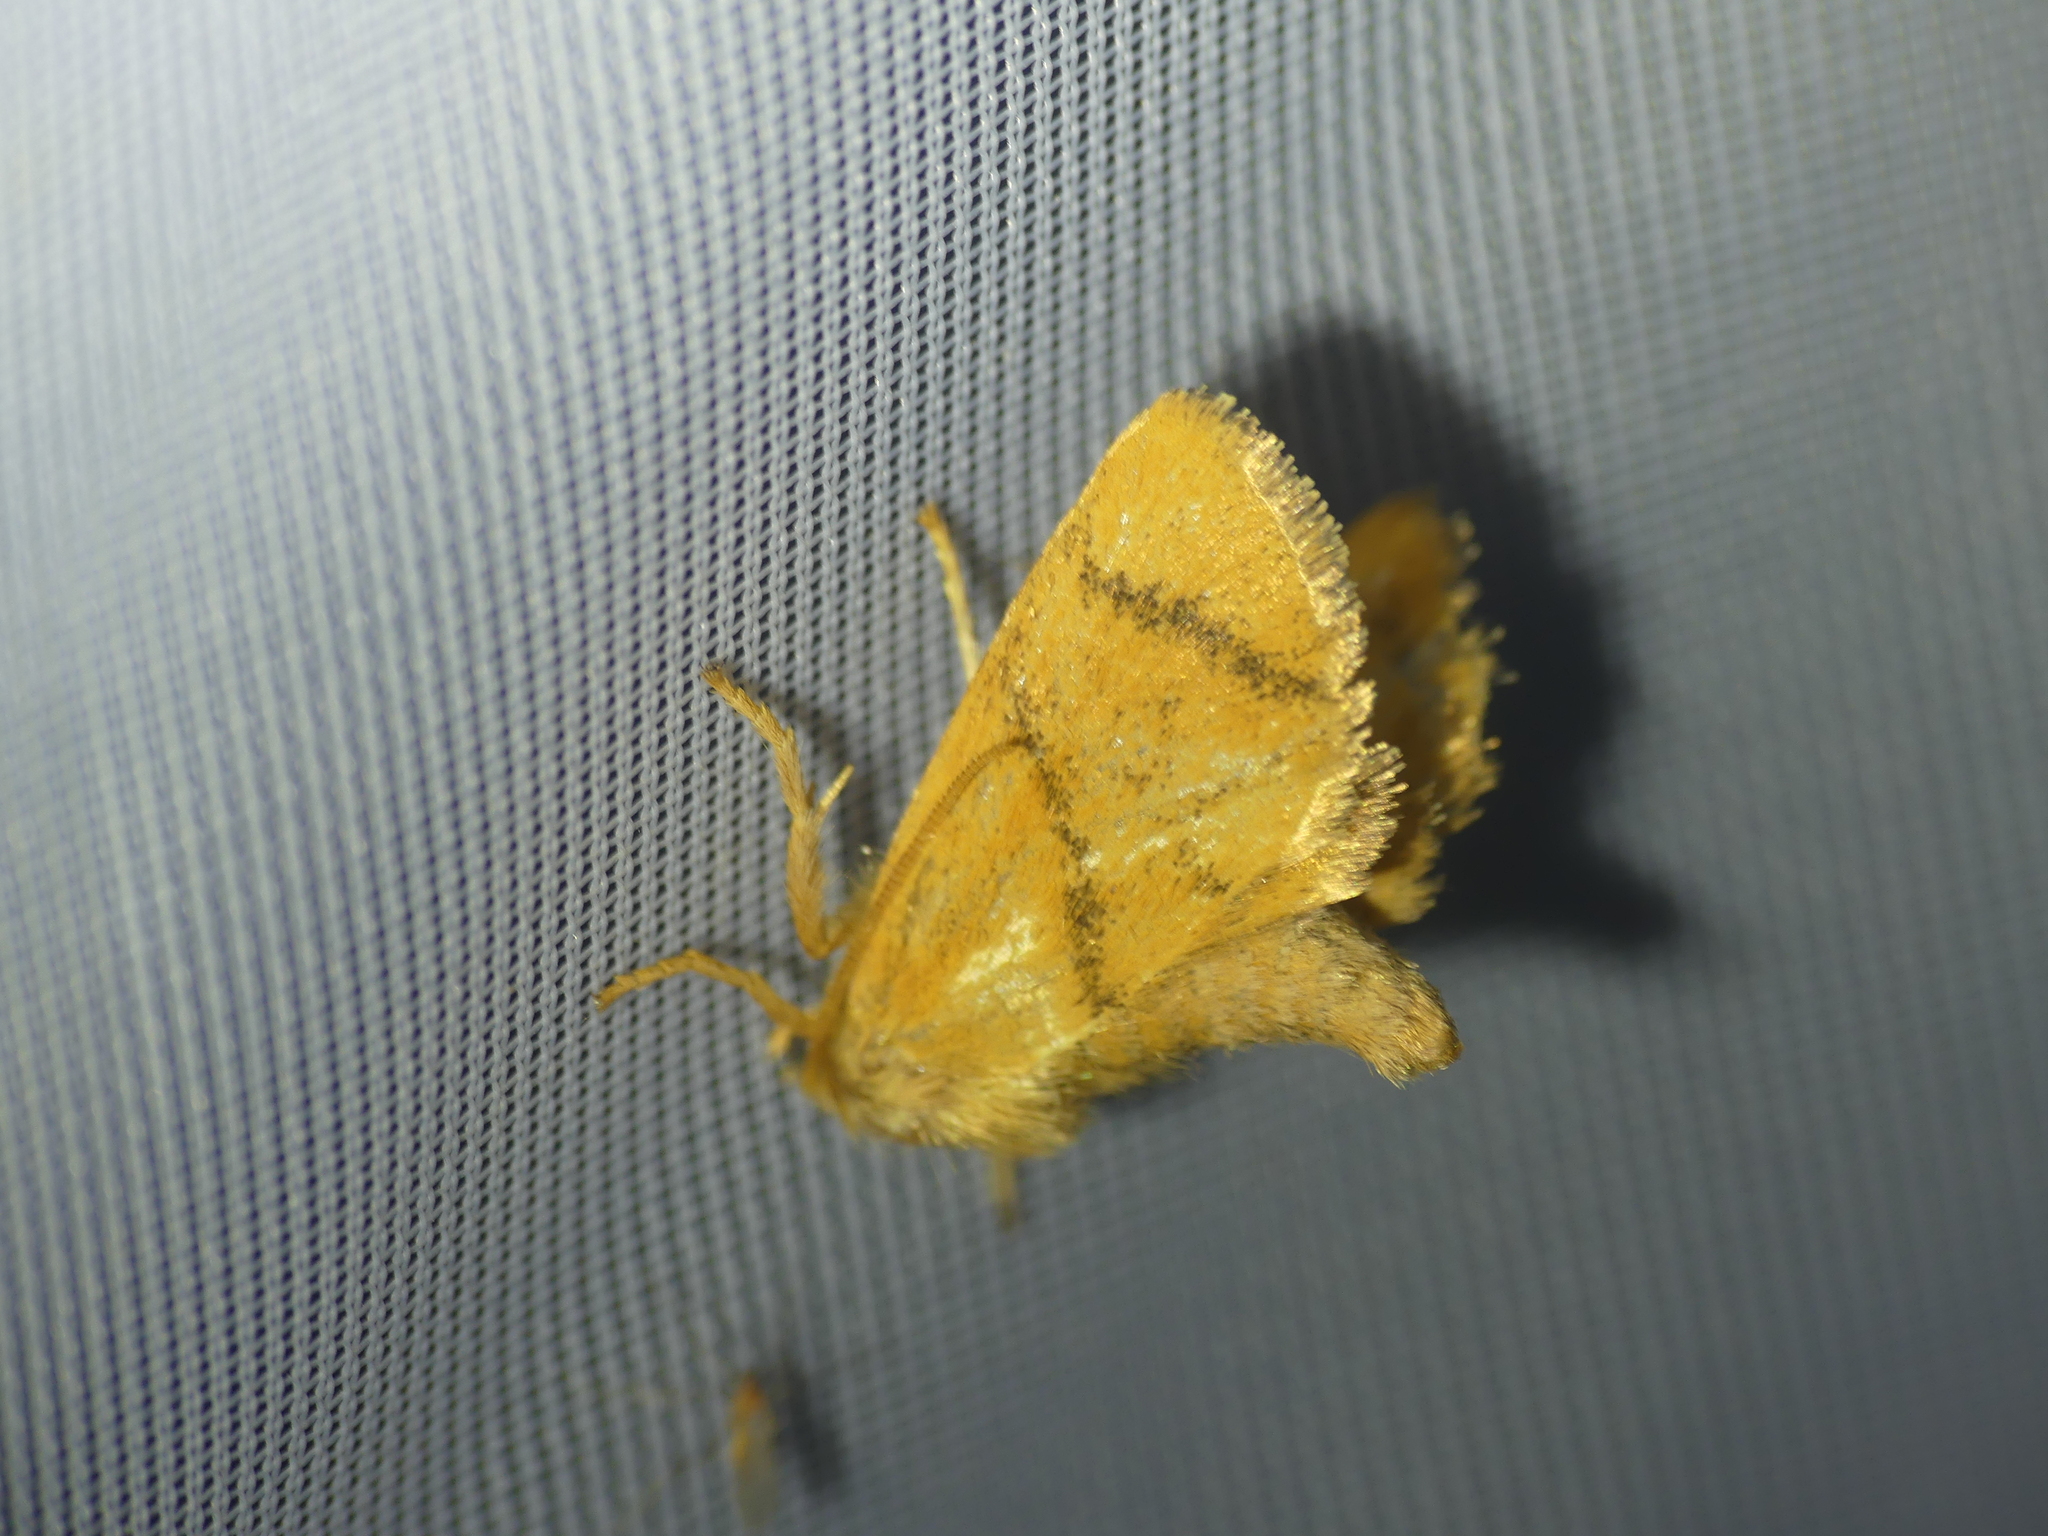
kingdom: Animalia
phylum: Arthropoda
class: Insecta
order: Lepidoptera
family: Limacodidae
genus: Apoda
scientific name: Apoda limacodes
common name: Festoon
